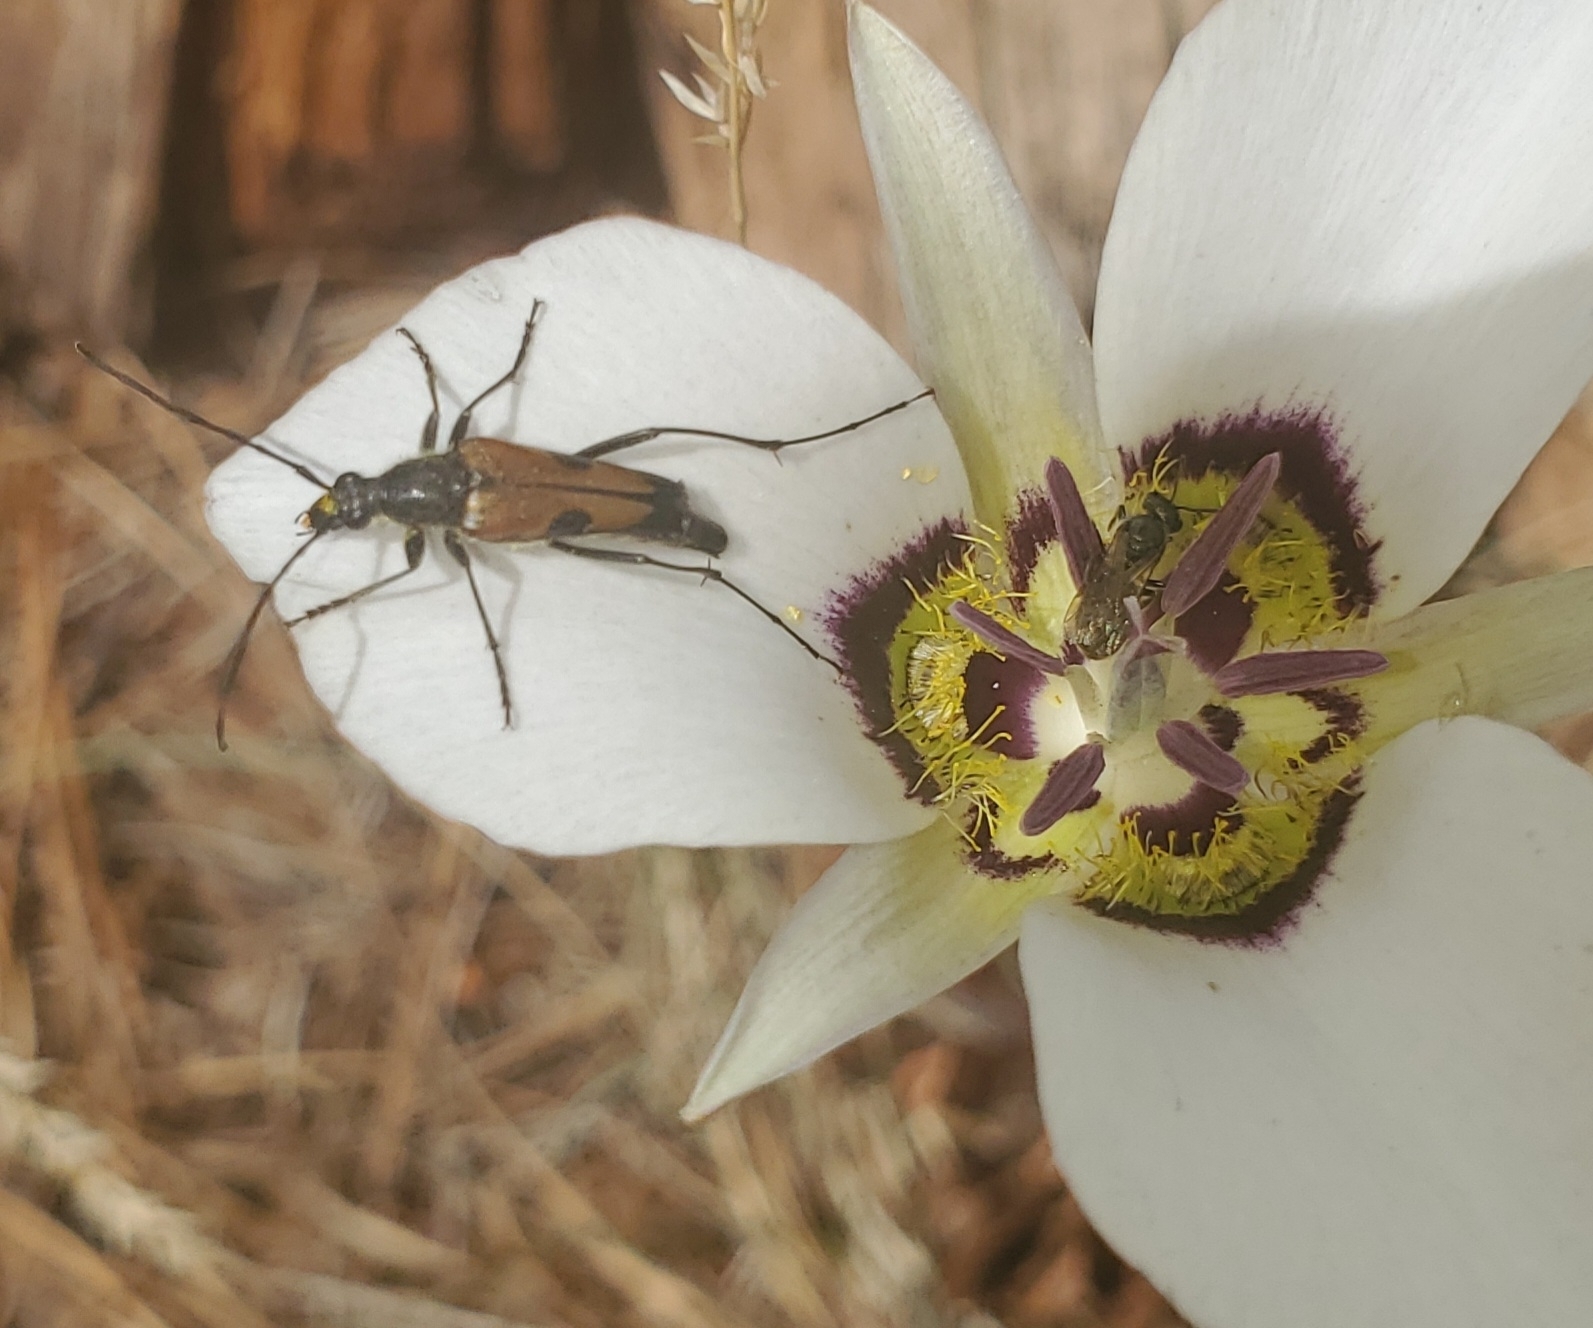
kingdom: Animalia
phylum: Arthropoda
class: Insecta
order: Coleoptera
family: Cerambycidae
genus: Etorofus
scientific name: Etorofus
